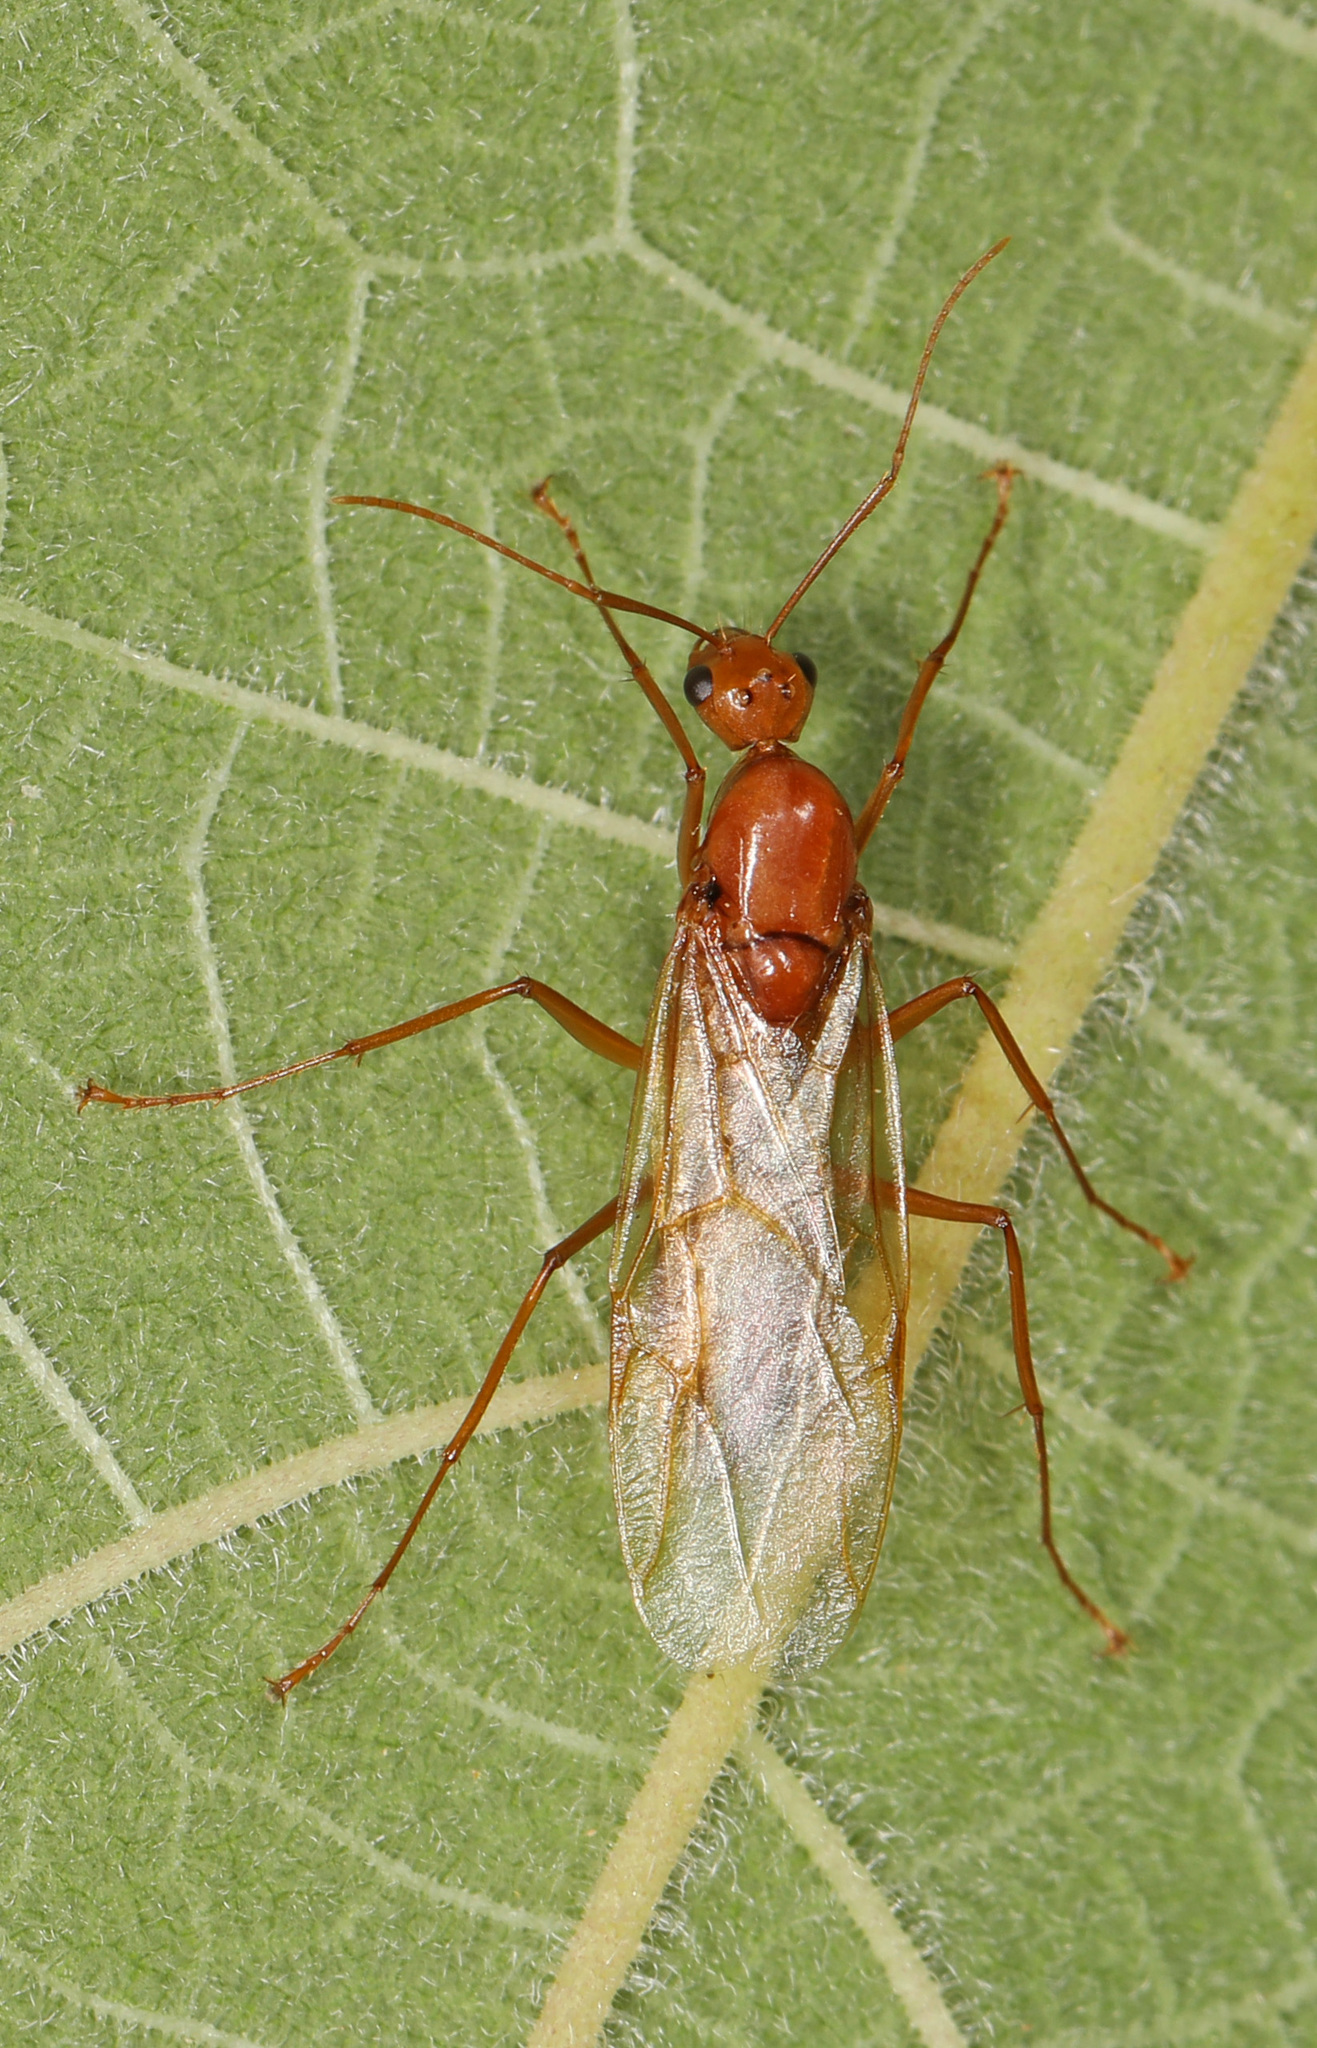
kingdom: Animalia
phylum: Arthropoda
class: Insecta
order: Hymenoptera
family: Formicidae
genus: Camponotus
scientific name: Camponotus castaneus
